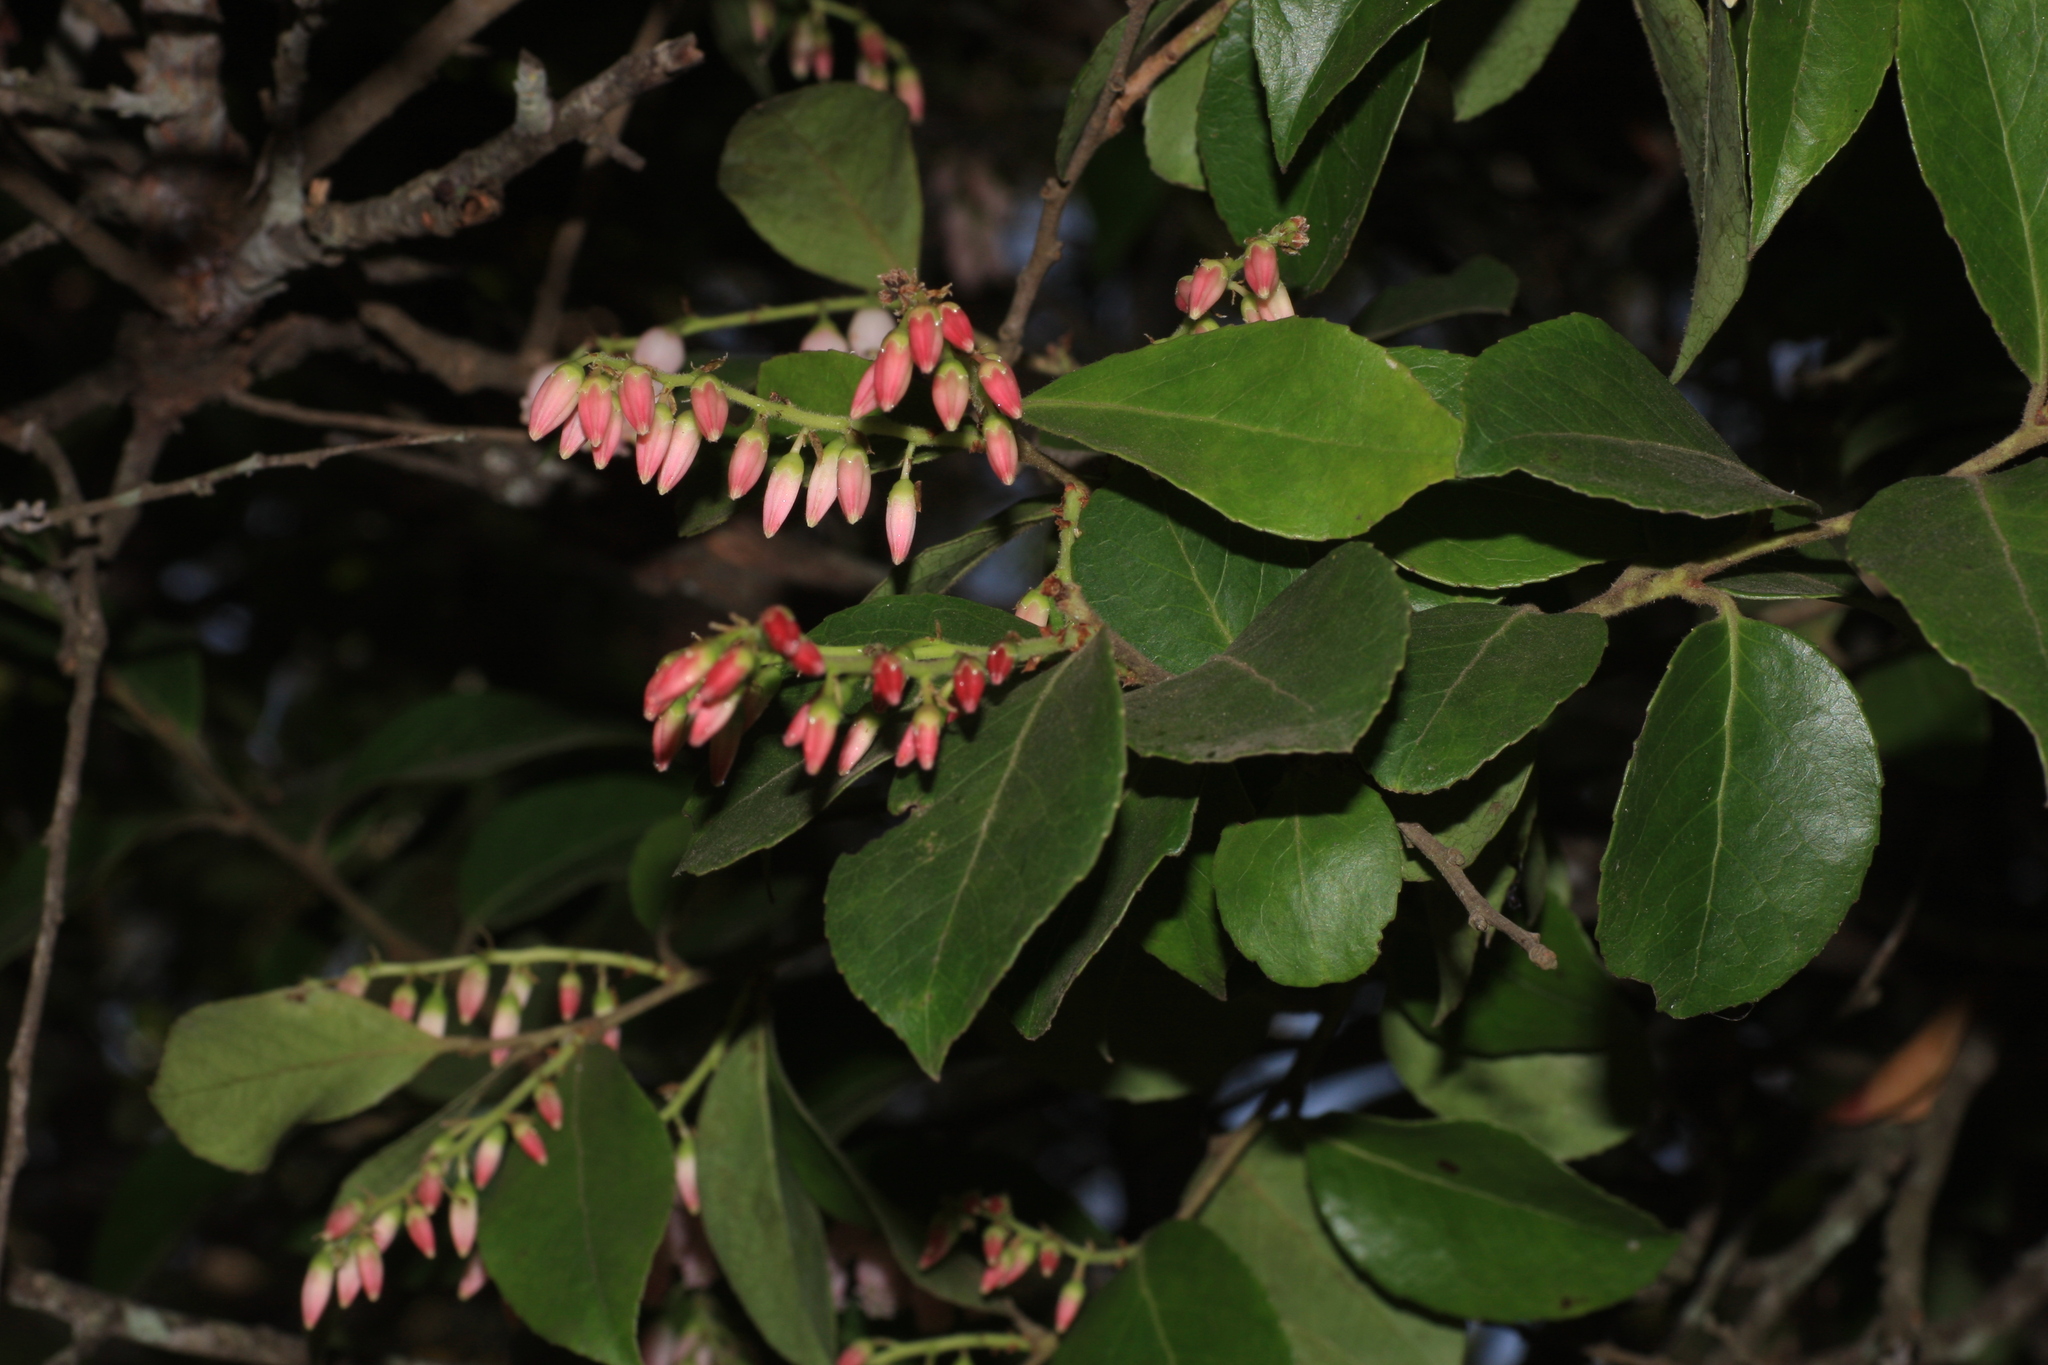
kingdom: Plantae
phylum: Tracheophyta
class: Magnoliopsida
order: Ericales
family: Ericaceae
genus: Vaccinium
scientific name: Vaccinium symplocifolium
